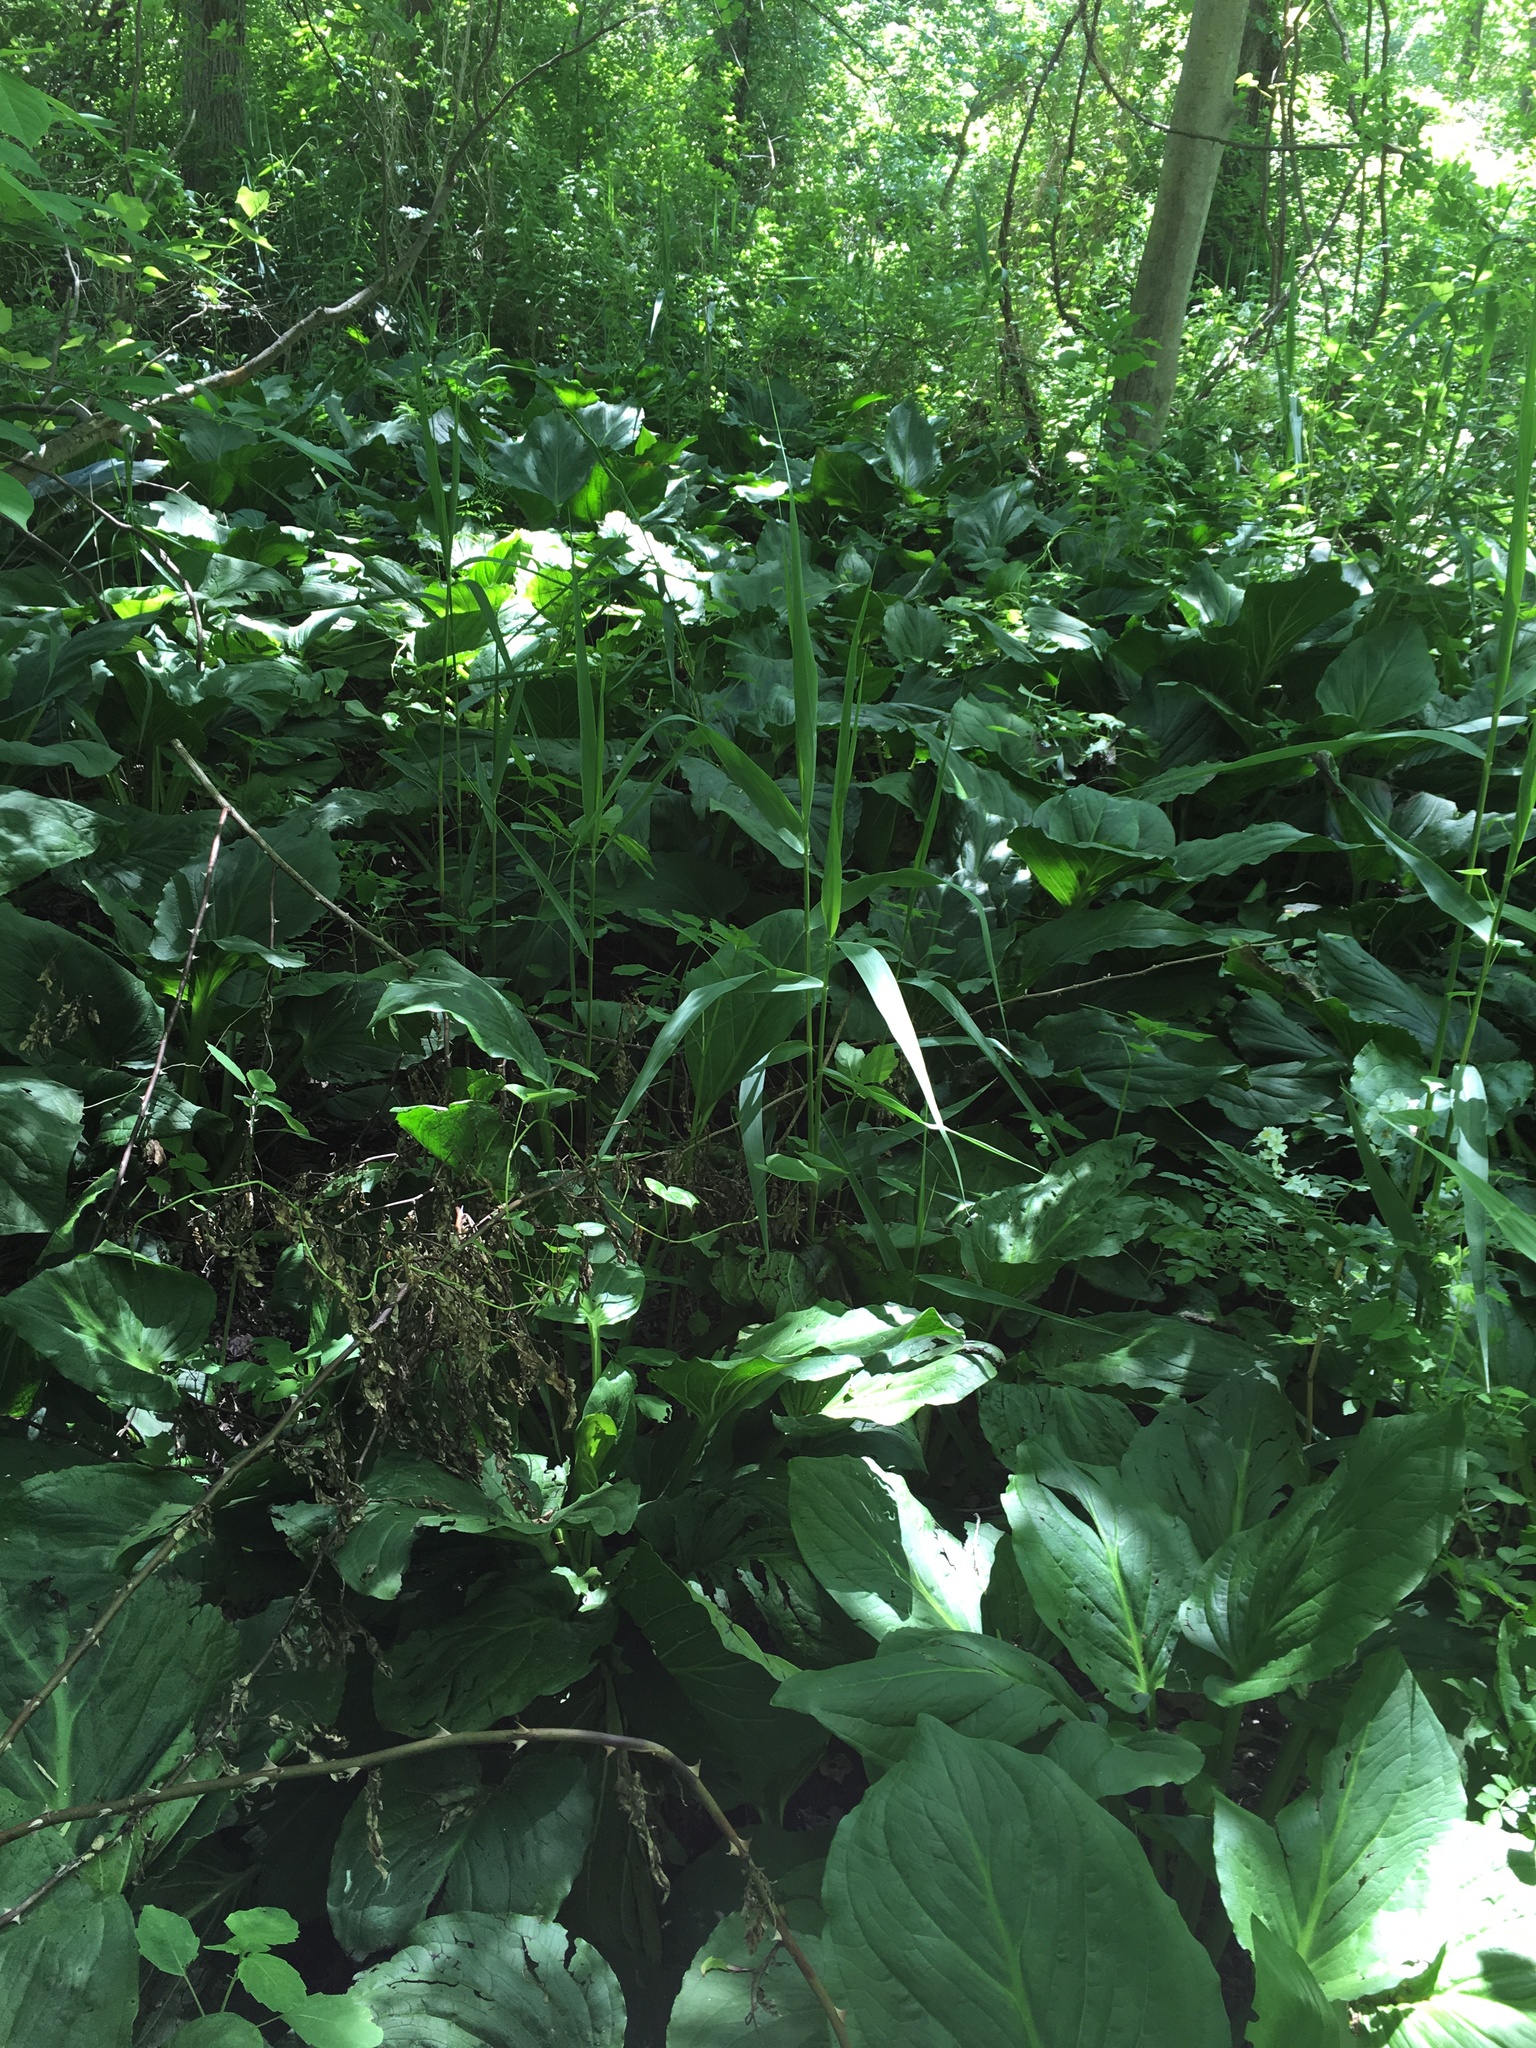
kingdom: Plantae
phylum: Tracheophyta
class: Liliopsida
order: Poales
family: Poaceae
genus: Phragmites
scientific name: Phragmites australis
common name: Common reed
